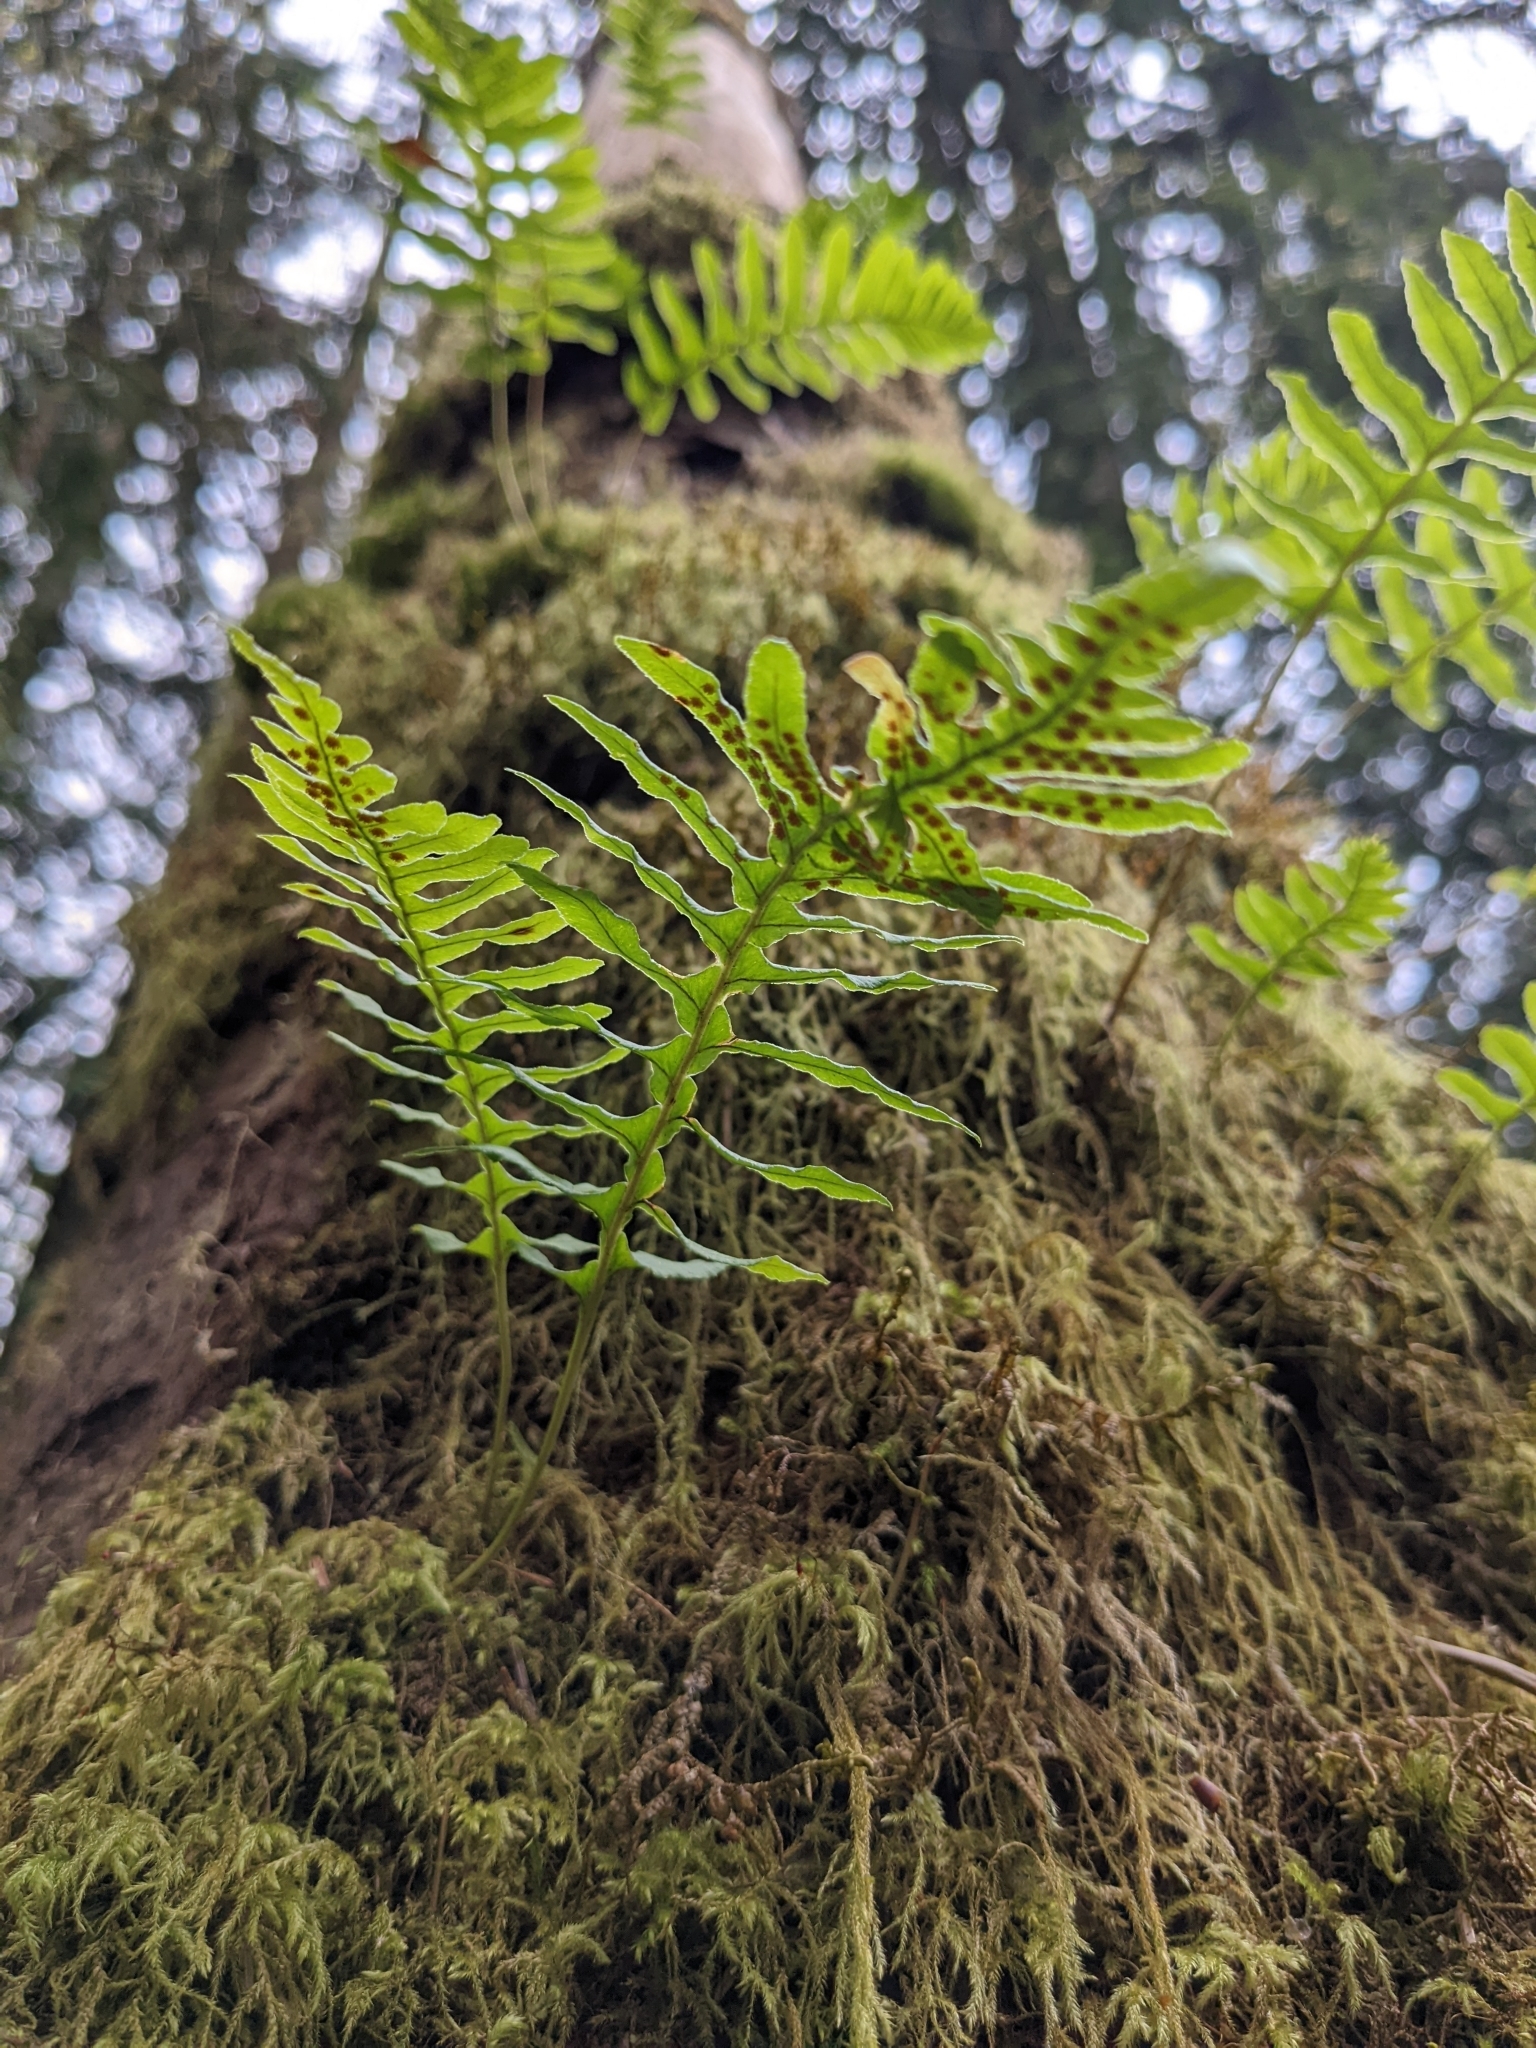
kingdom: Plantae
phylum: Tracheophyta
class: Polypodiopsida
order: Polypodiales
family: Polypodiaceae
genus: Polypodium
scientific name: Polypodium glycyrrhiza
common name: Licorice fern
